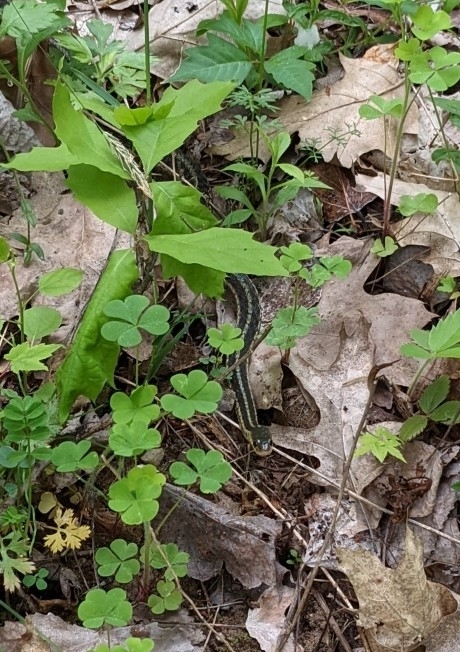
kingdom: Animalia
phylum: Chordata
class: Squamata
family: Colubridae
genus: Thamnophis
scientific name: Thamnophis sirtalis
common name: Common garter snake
